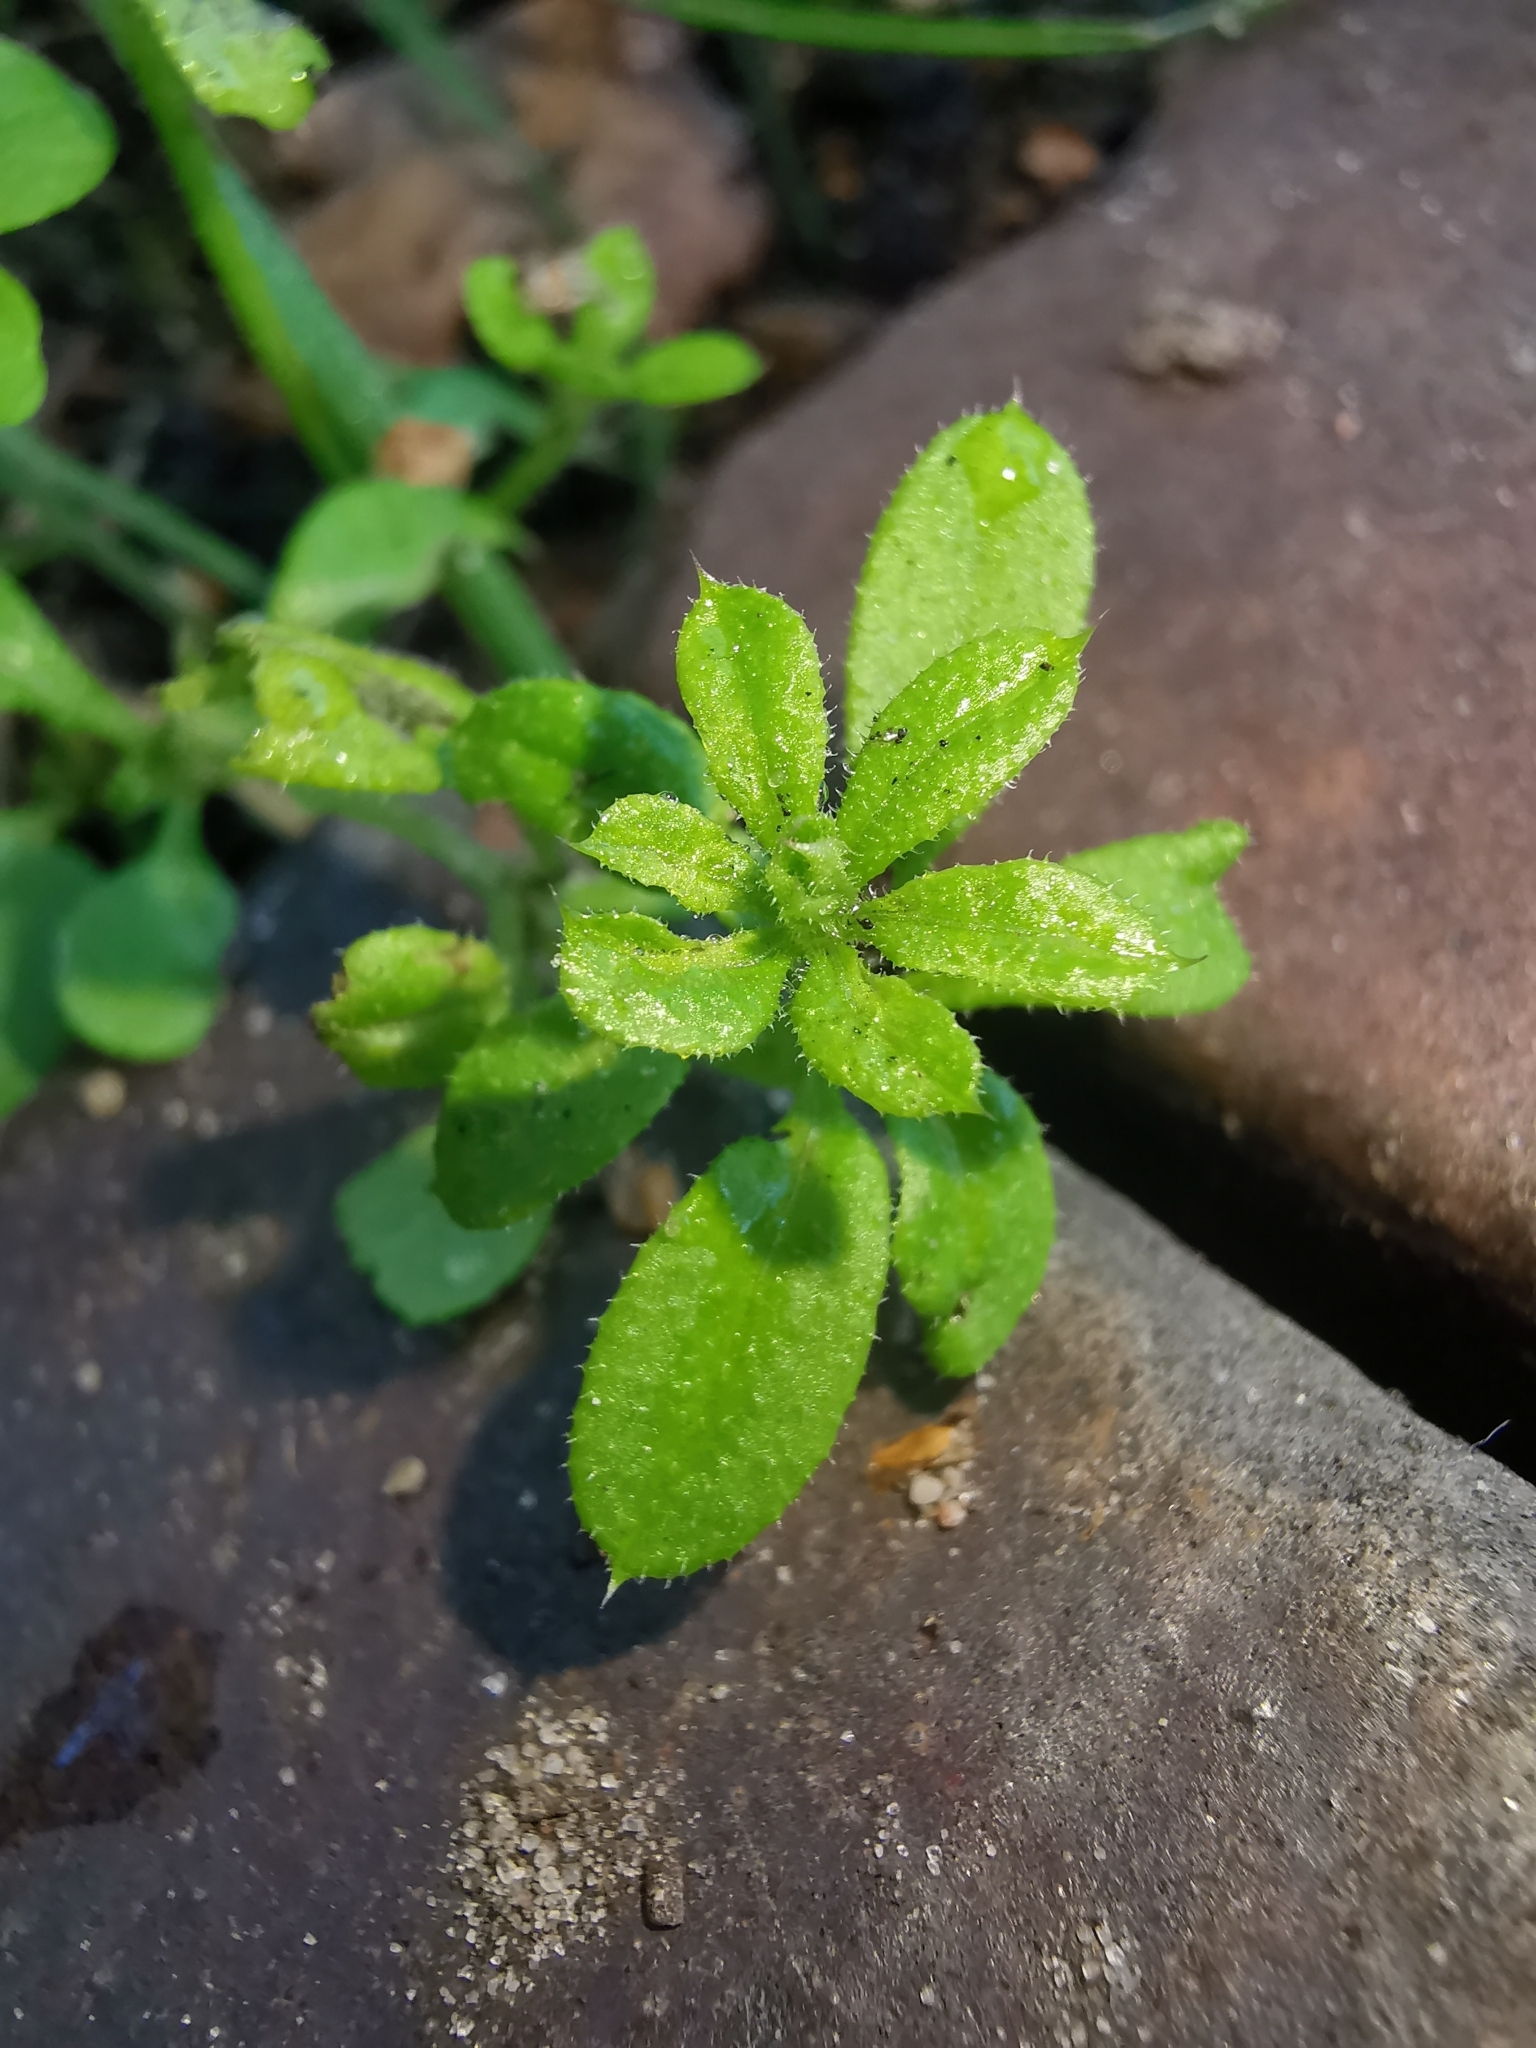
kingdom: Plantae
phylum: Tracheophyta
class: Magnoliopsida
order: Gentianales
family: Rubiaceae
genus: Galium
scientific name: Galium aparine
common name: Cleavers
